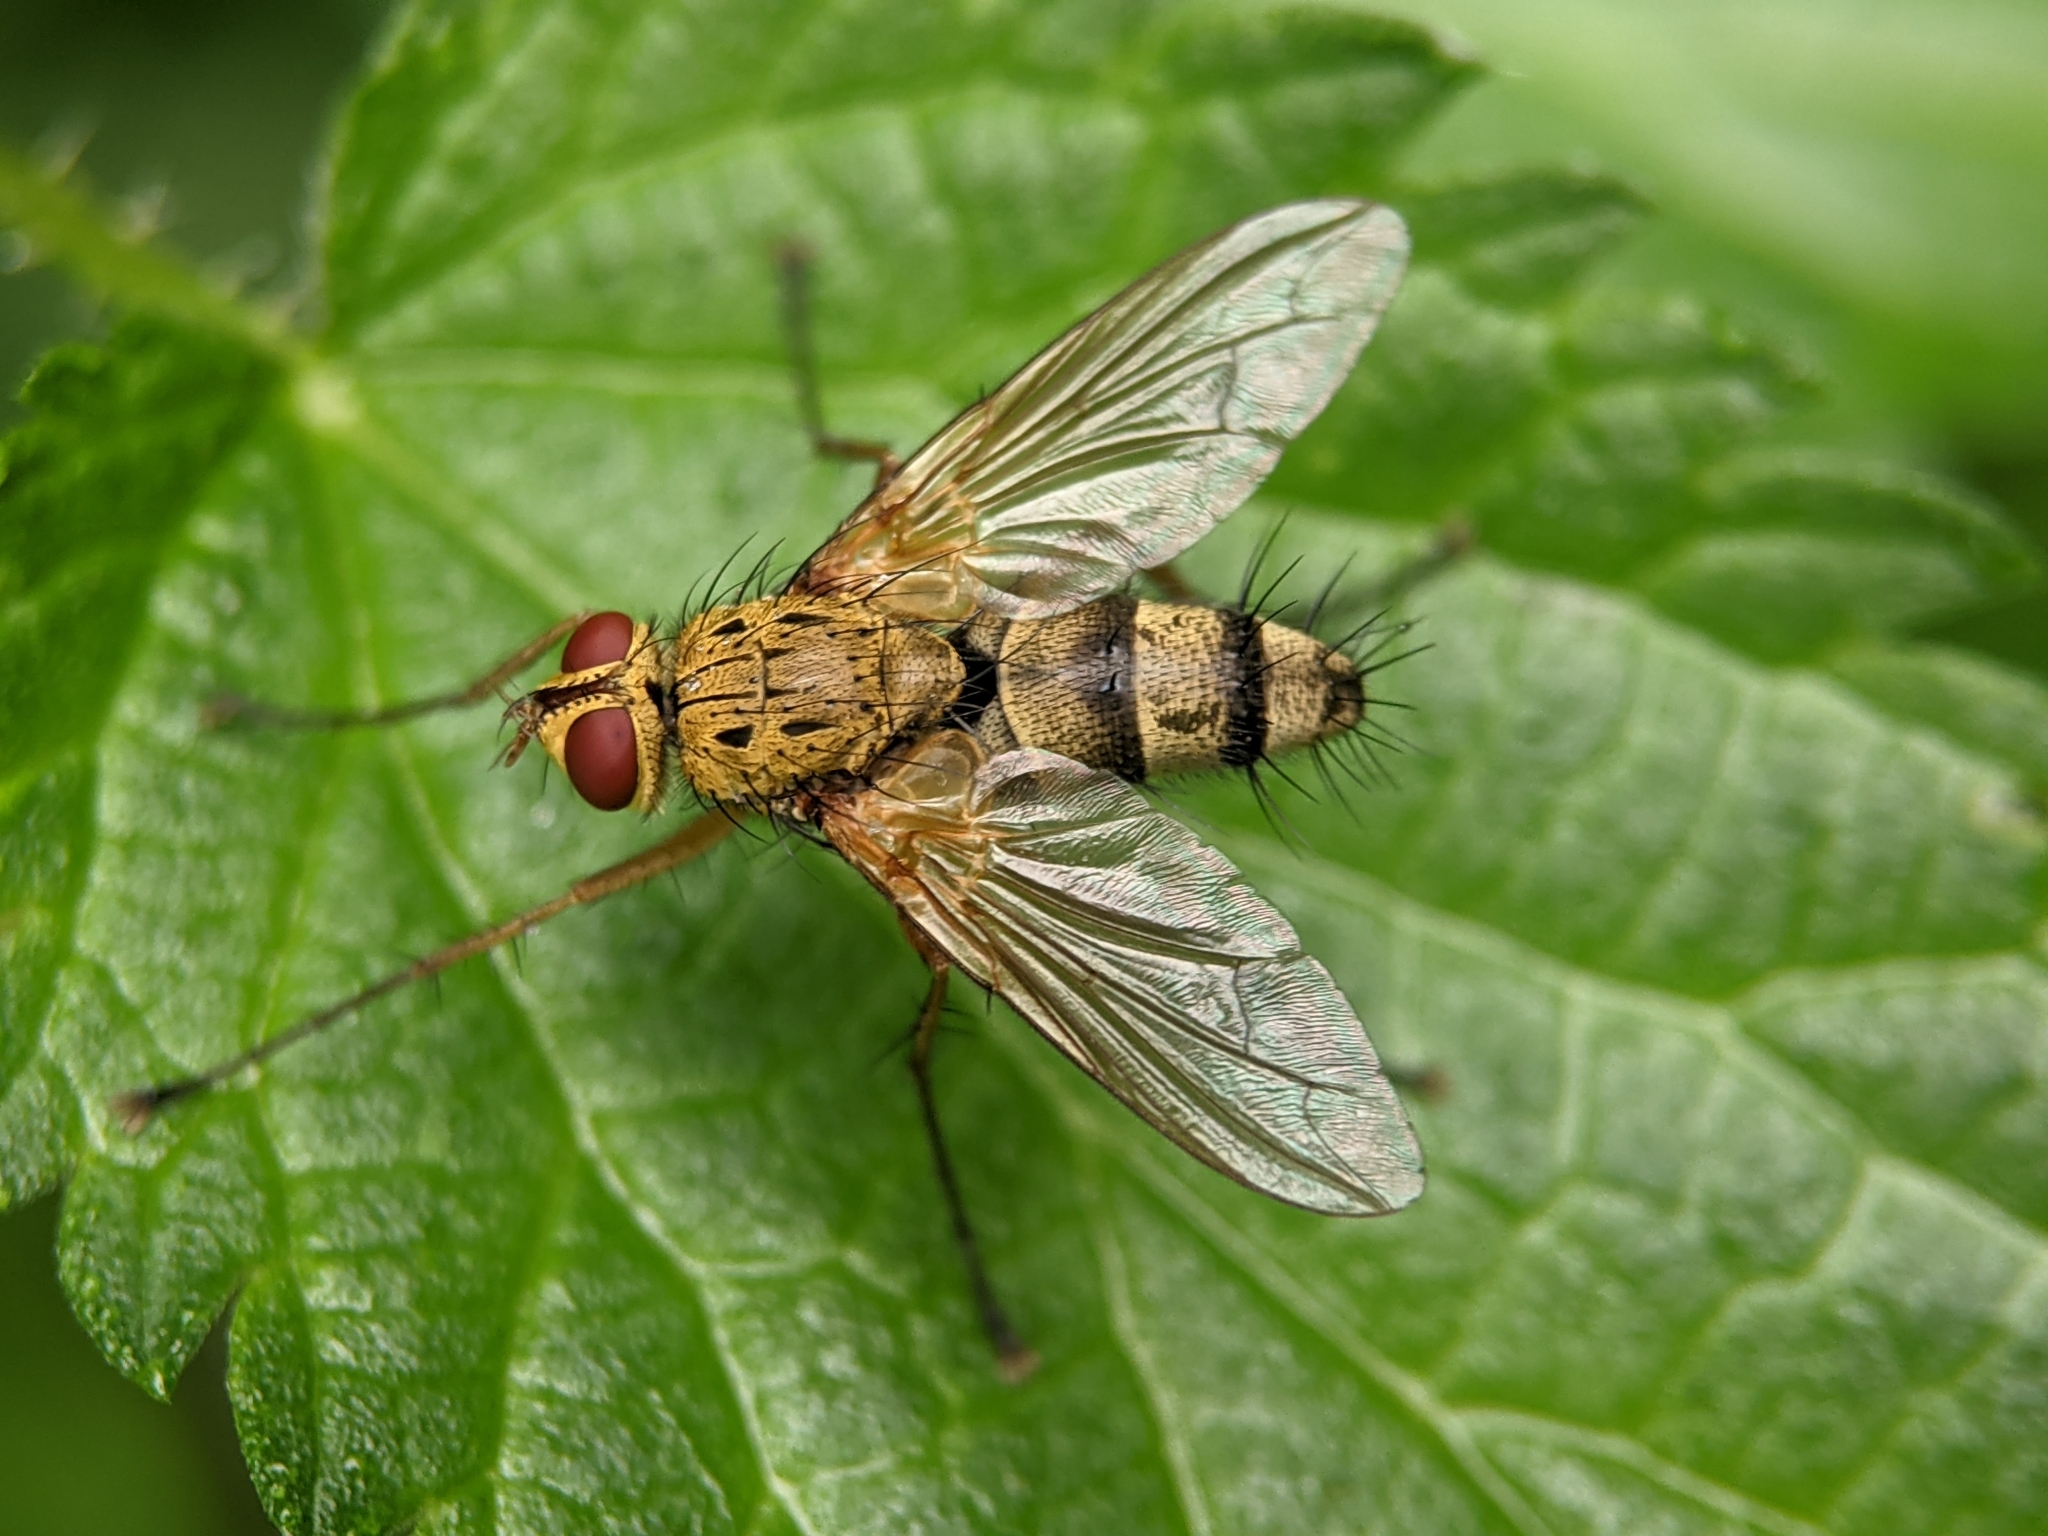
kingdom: Animalia
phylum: Arthropoda
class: Insecta
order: Diptera
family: Tachinidae
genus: Dexiosoma
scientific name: Dexiosoma caninum
